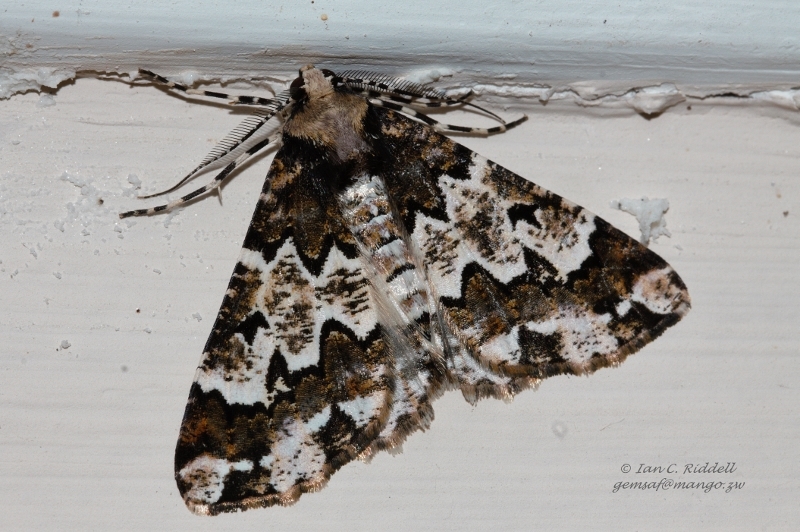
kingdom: Animalia
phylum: Arthropoda
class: Insecta
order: Lepidoptera
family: Geometridae
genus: Oedicentra
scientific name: Oedicentra albipennis
